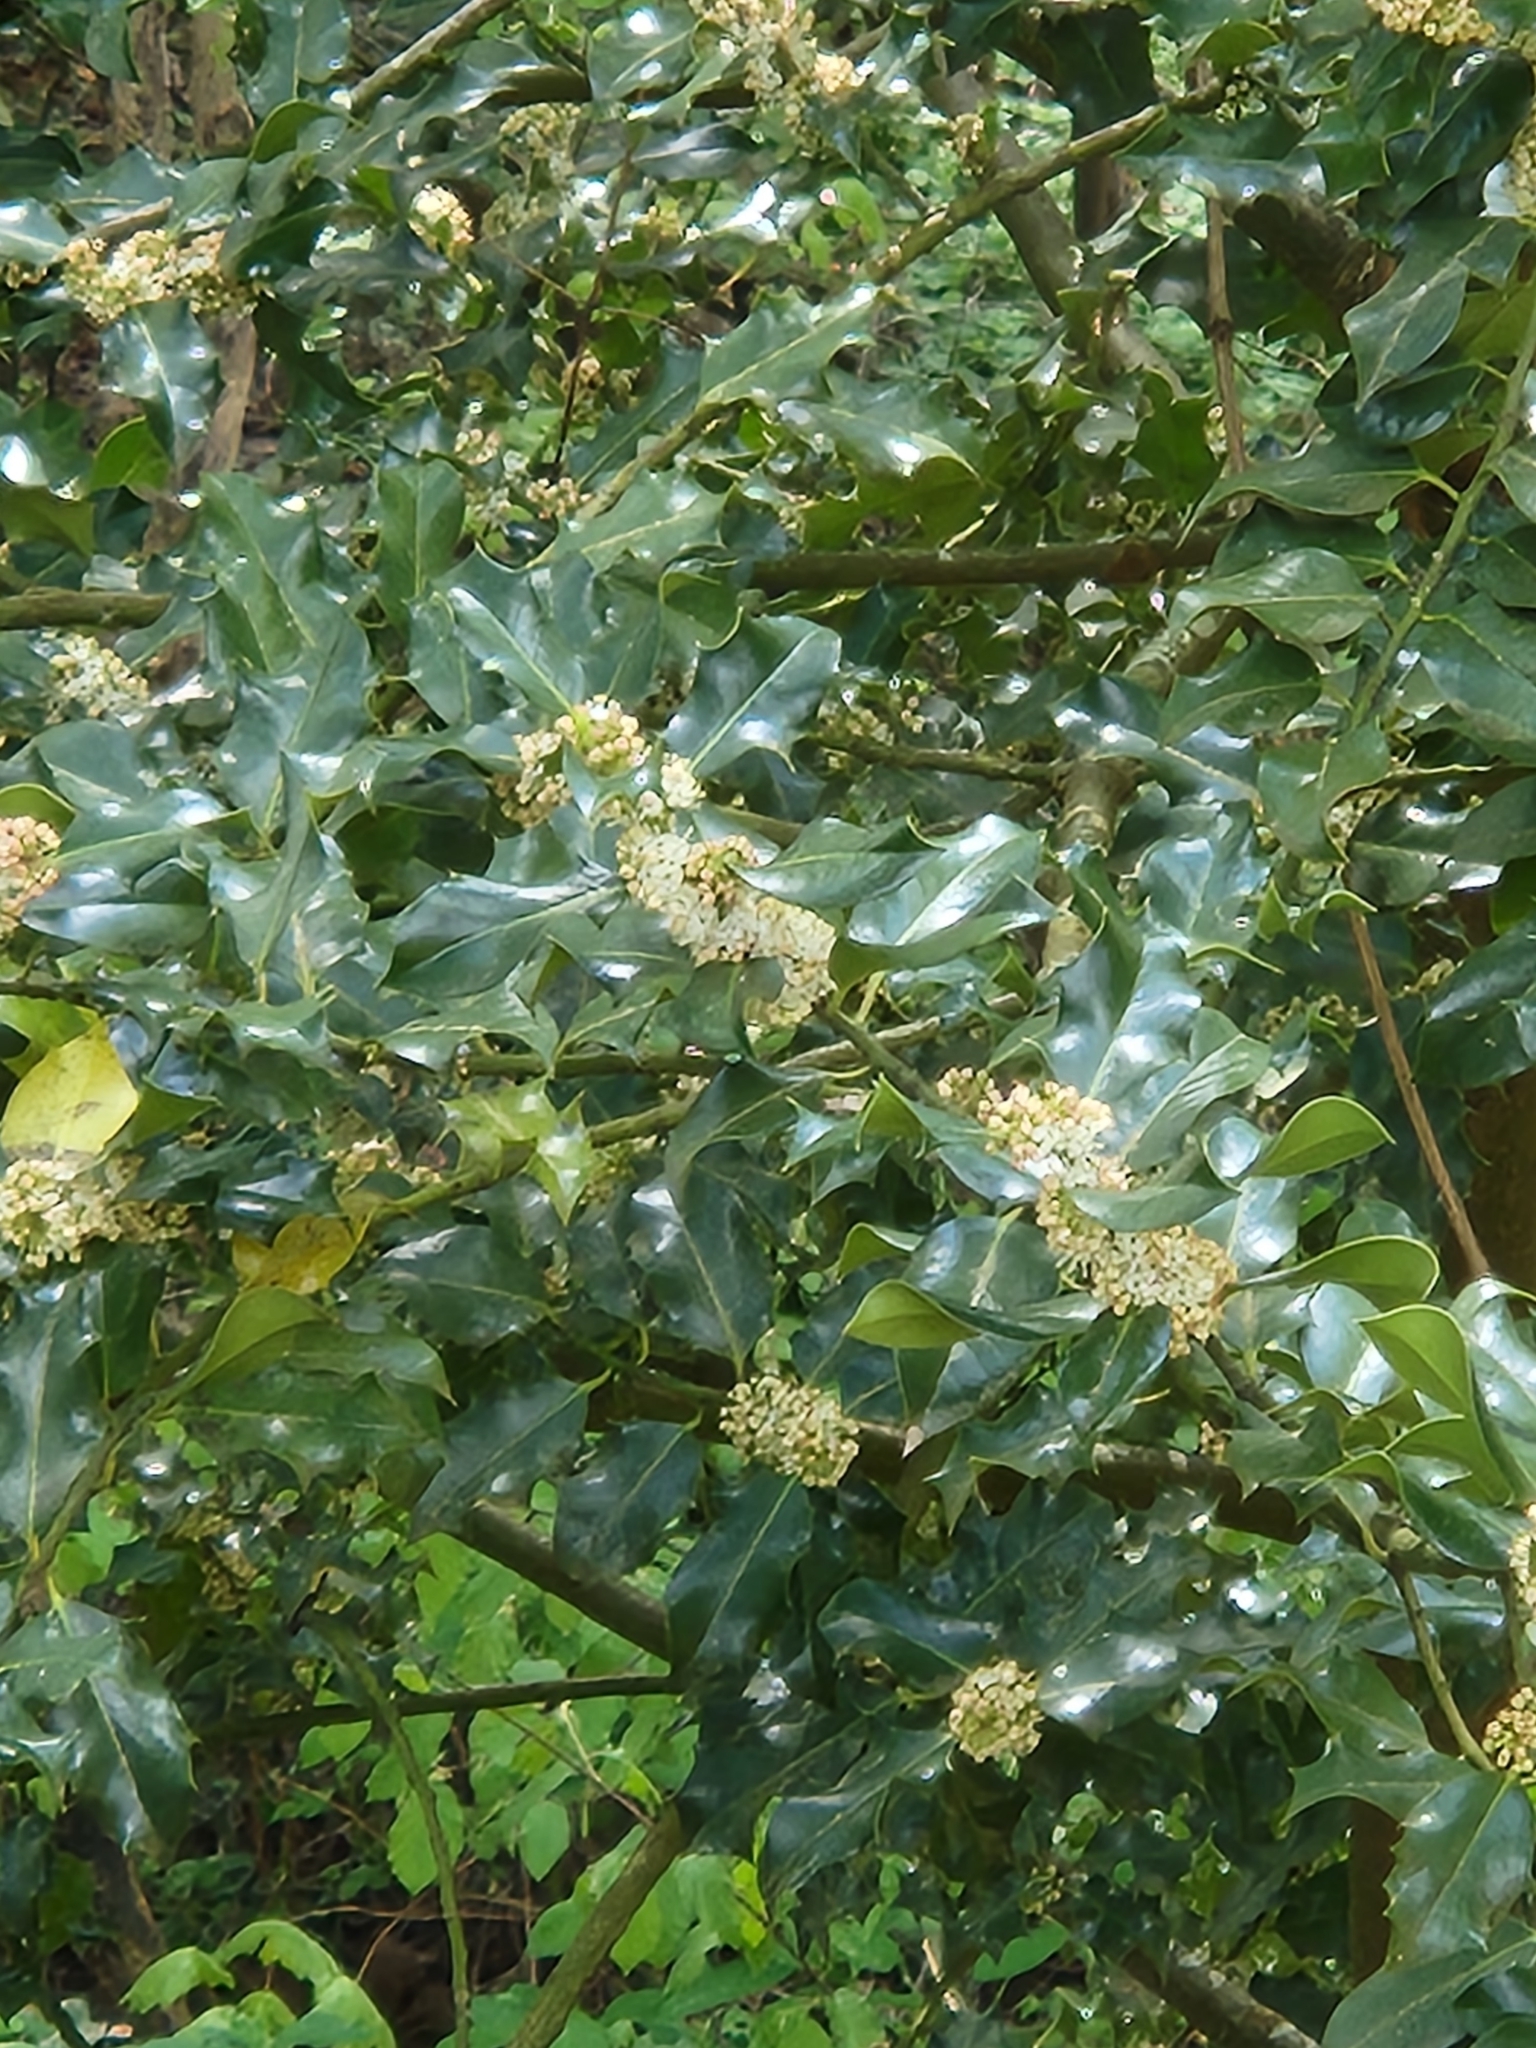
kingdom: Plantae
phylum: Tracheophyta
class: Magnoliopsida
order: Aquifoliales
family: Aquifoliaceae
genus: Ilex
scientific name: Ilex aquifolium
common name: English holly
